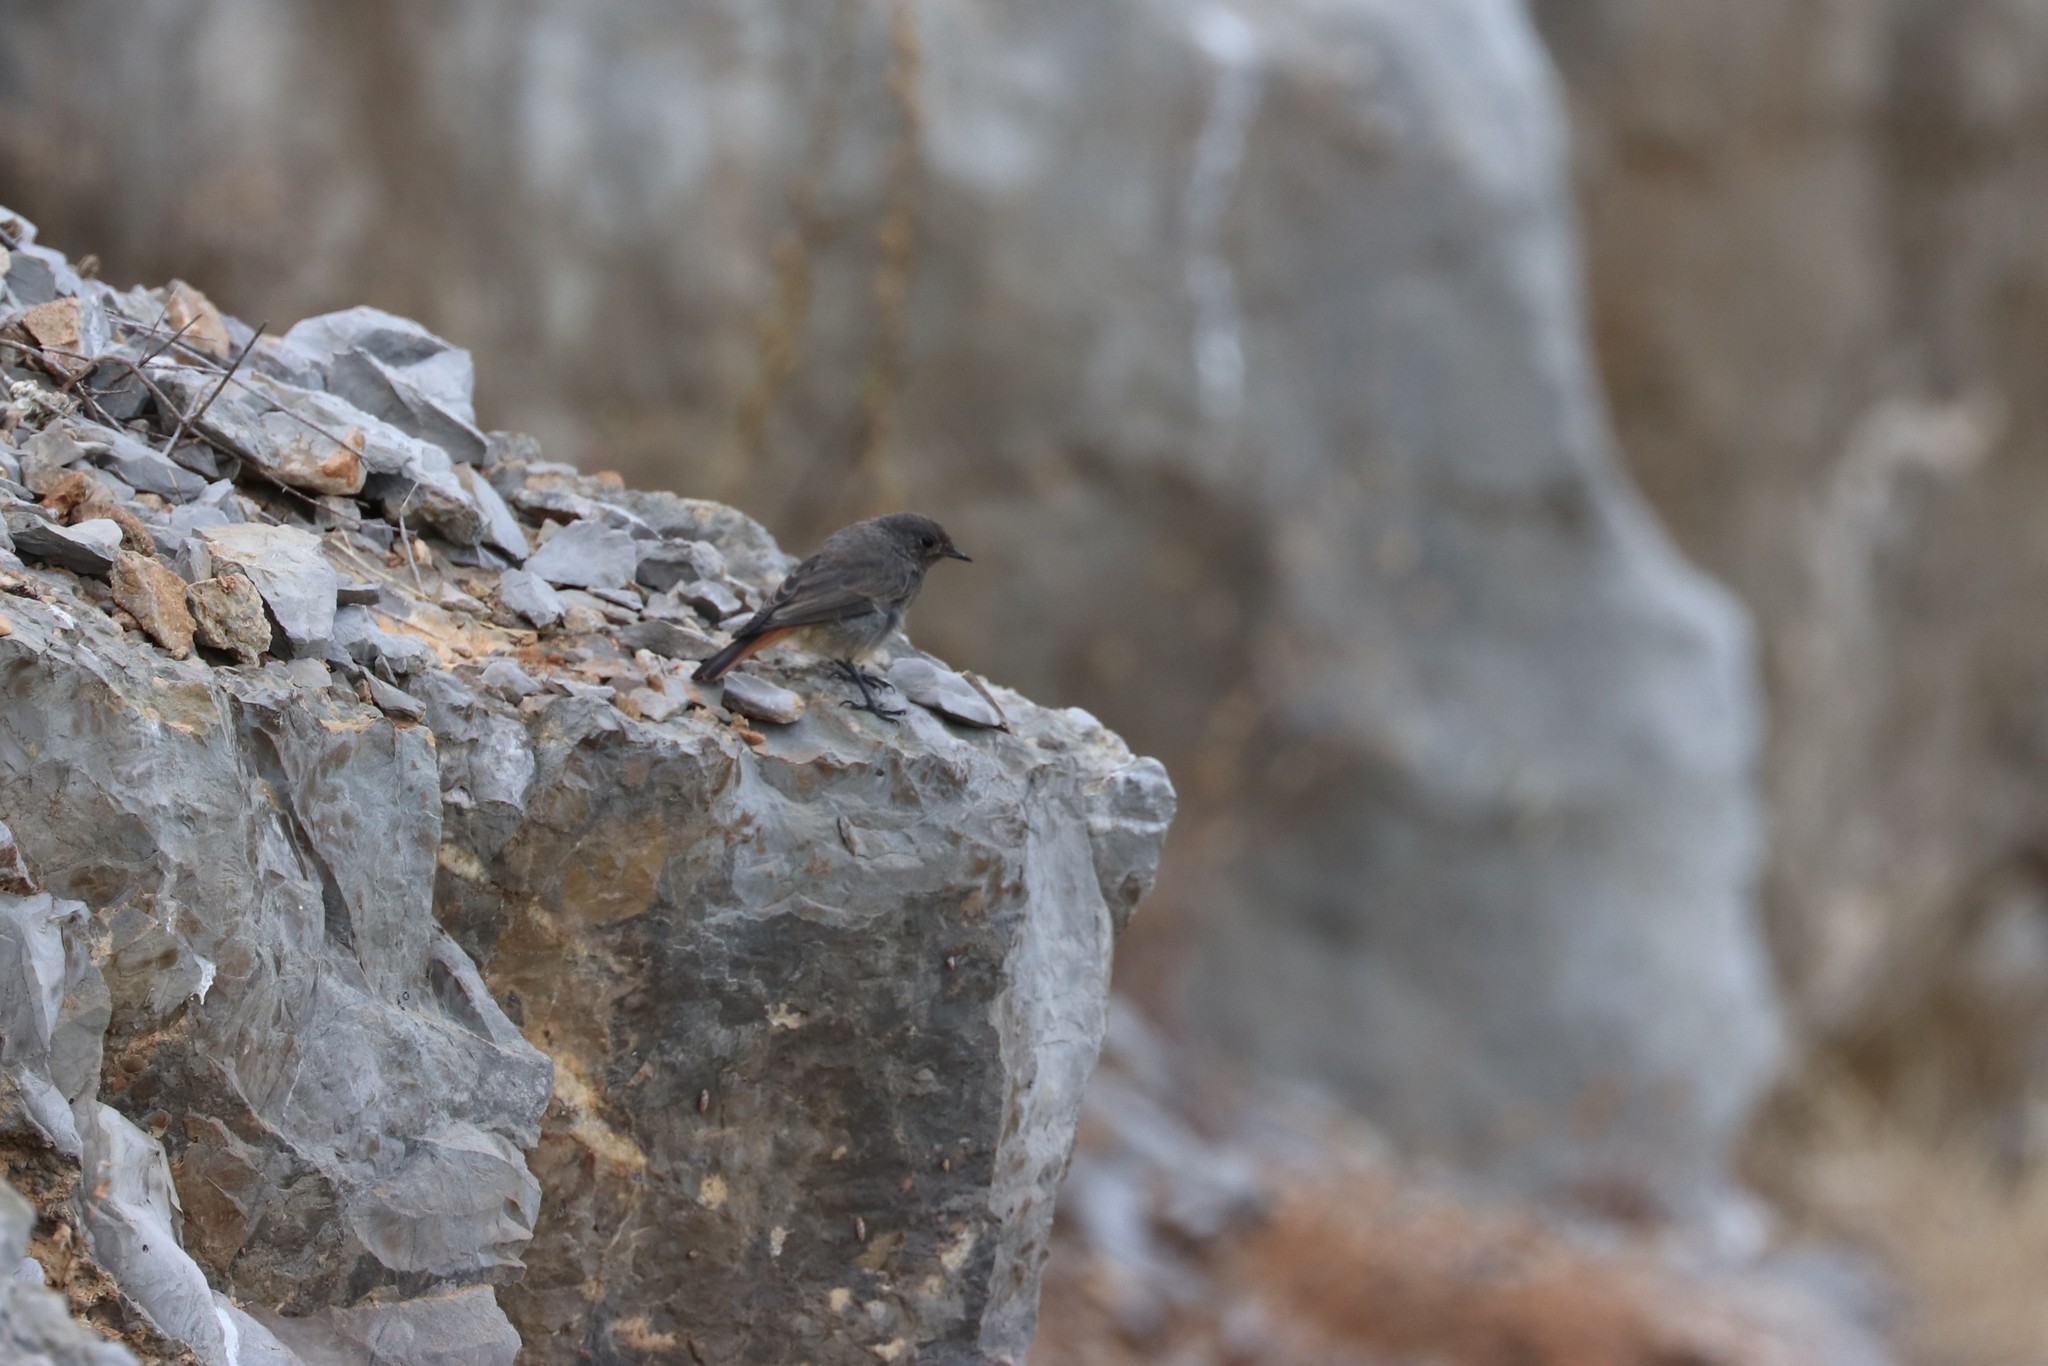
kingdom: Animalia
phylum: Chordata
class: Aves
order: Passeriformes
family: Muscicapidae
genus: Phoenicurus
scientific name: Phoenicurus ochruros
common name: Black redstart
